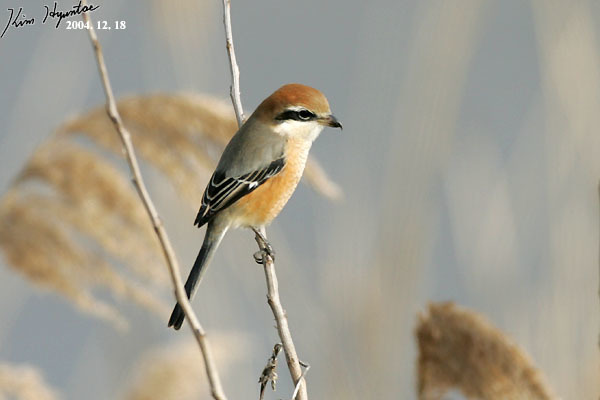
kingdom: Animalia
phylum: Chordata
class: Aves
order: Passeriformes
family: Laniidae
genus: Lanius
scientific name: Lanius bucephalus
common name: Bull-headed shrike
